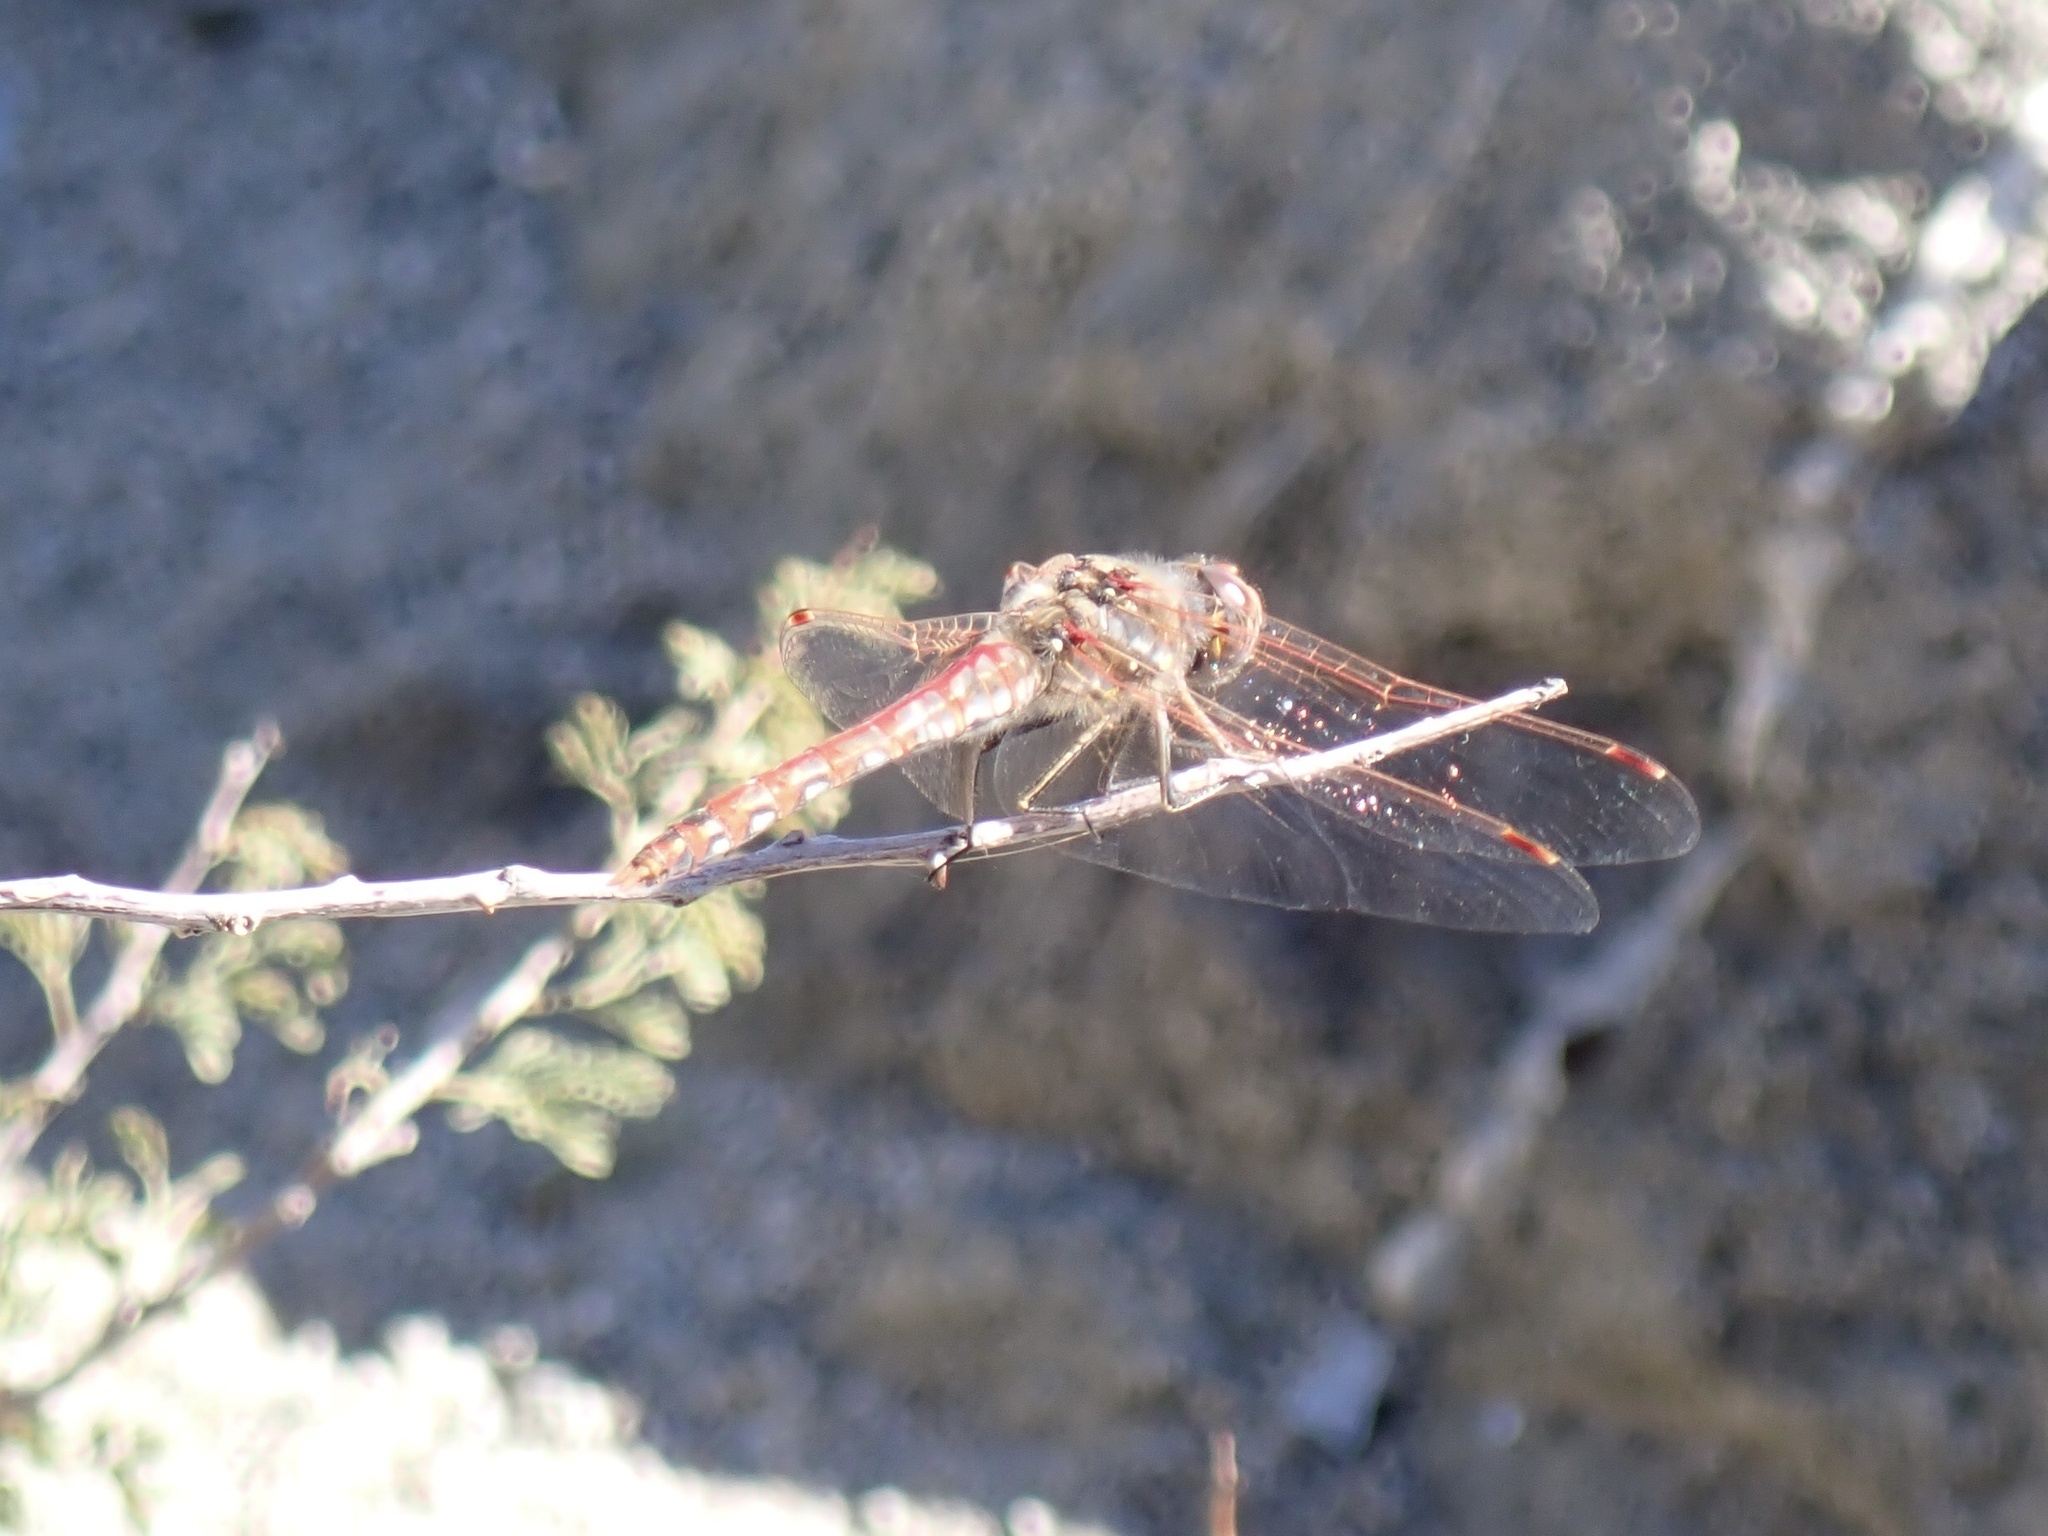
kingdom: Animalia
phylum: Arthropoda
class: Insecta
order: Odonata
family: Libellulidae
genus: Sympetrum
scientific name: Sympetrum corruptum
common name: Variegated meadowhawk
